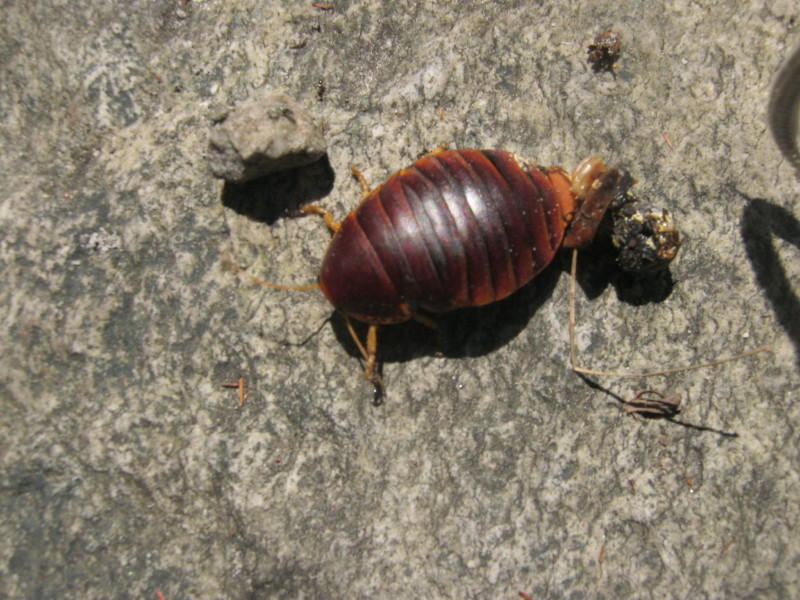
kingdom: Animalia
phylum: Arthropoda
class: Insecta
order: Blattodea
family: Blaberidae
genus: Aptera
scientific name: Aptera fusca
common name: Cape mountain cockroach
